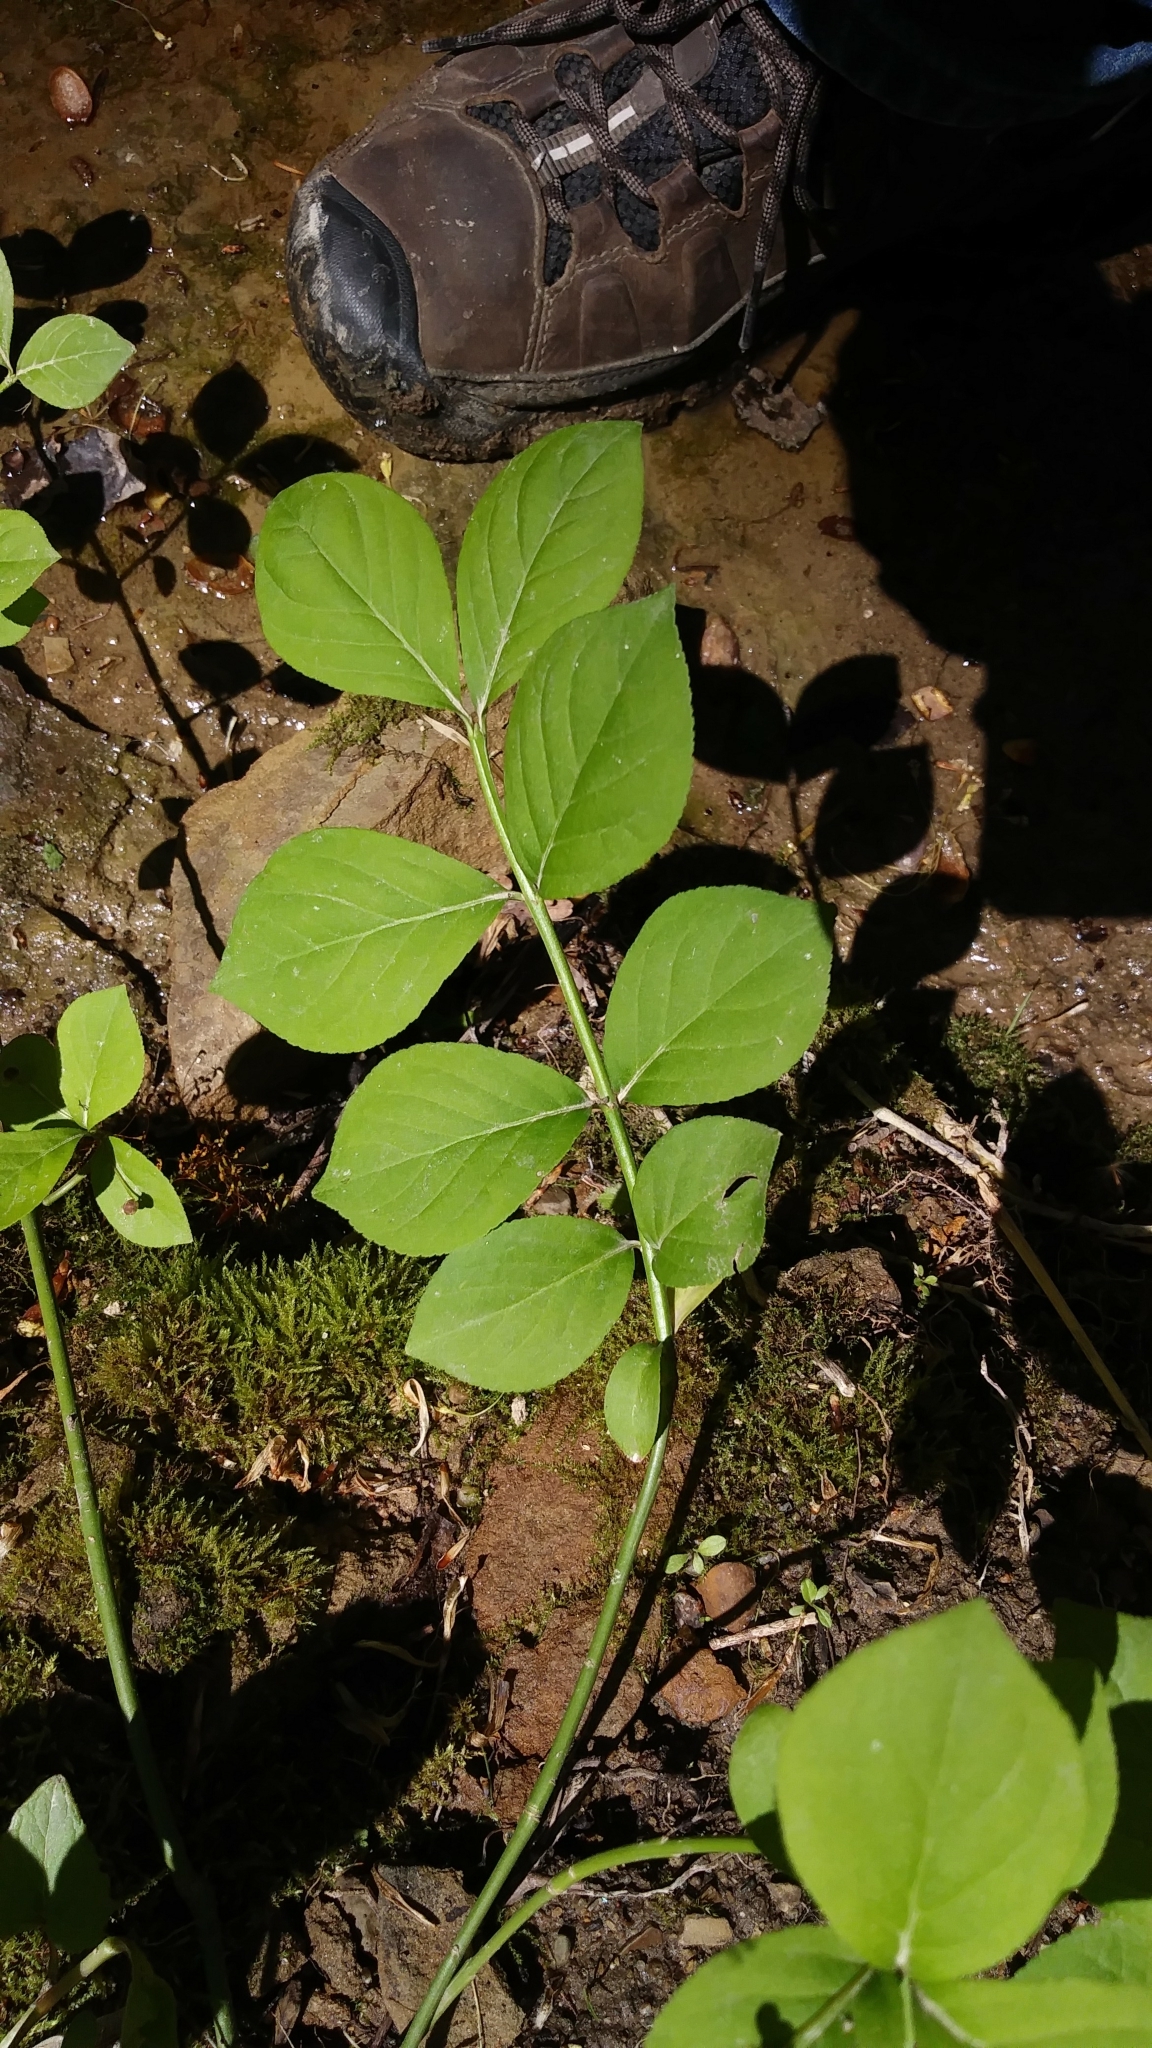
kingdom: Plantae
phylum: Tracheophyta
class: Magnoliopsida
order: Celastrales
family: Celastraceae
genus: Euonymus
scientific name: Euonymus obovatus
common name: Running strawberry-bush
